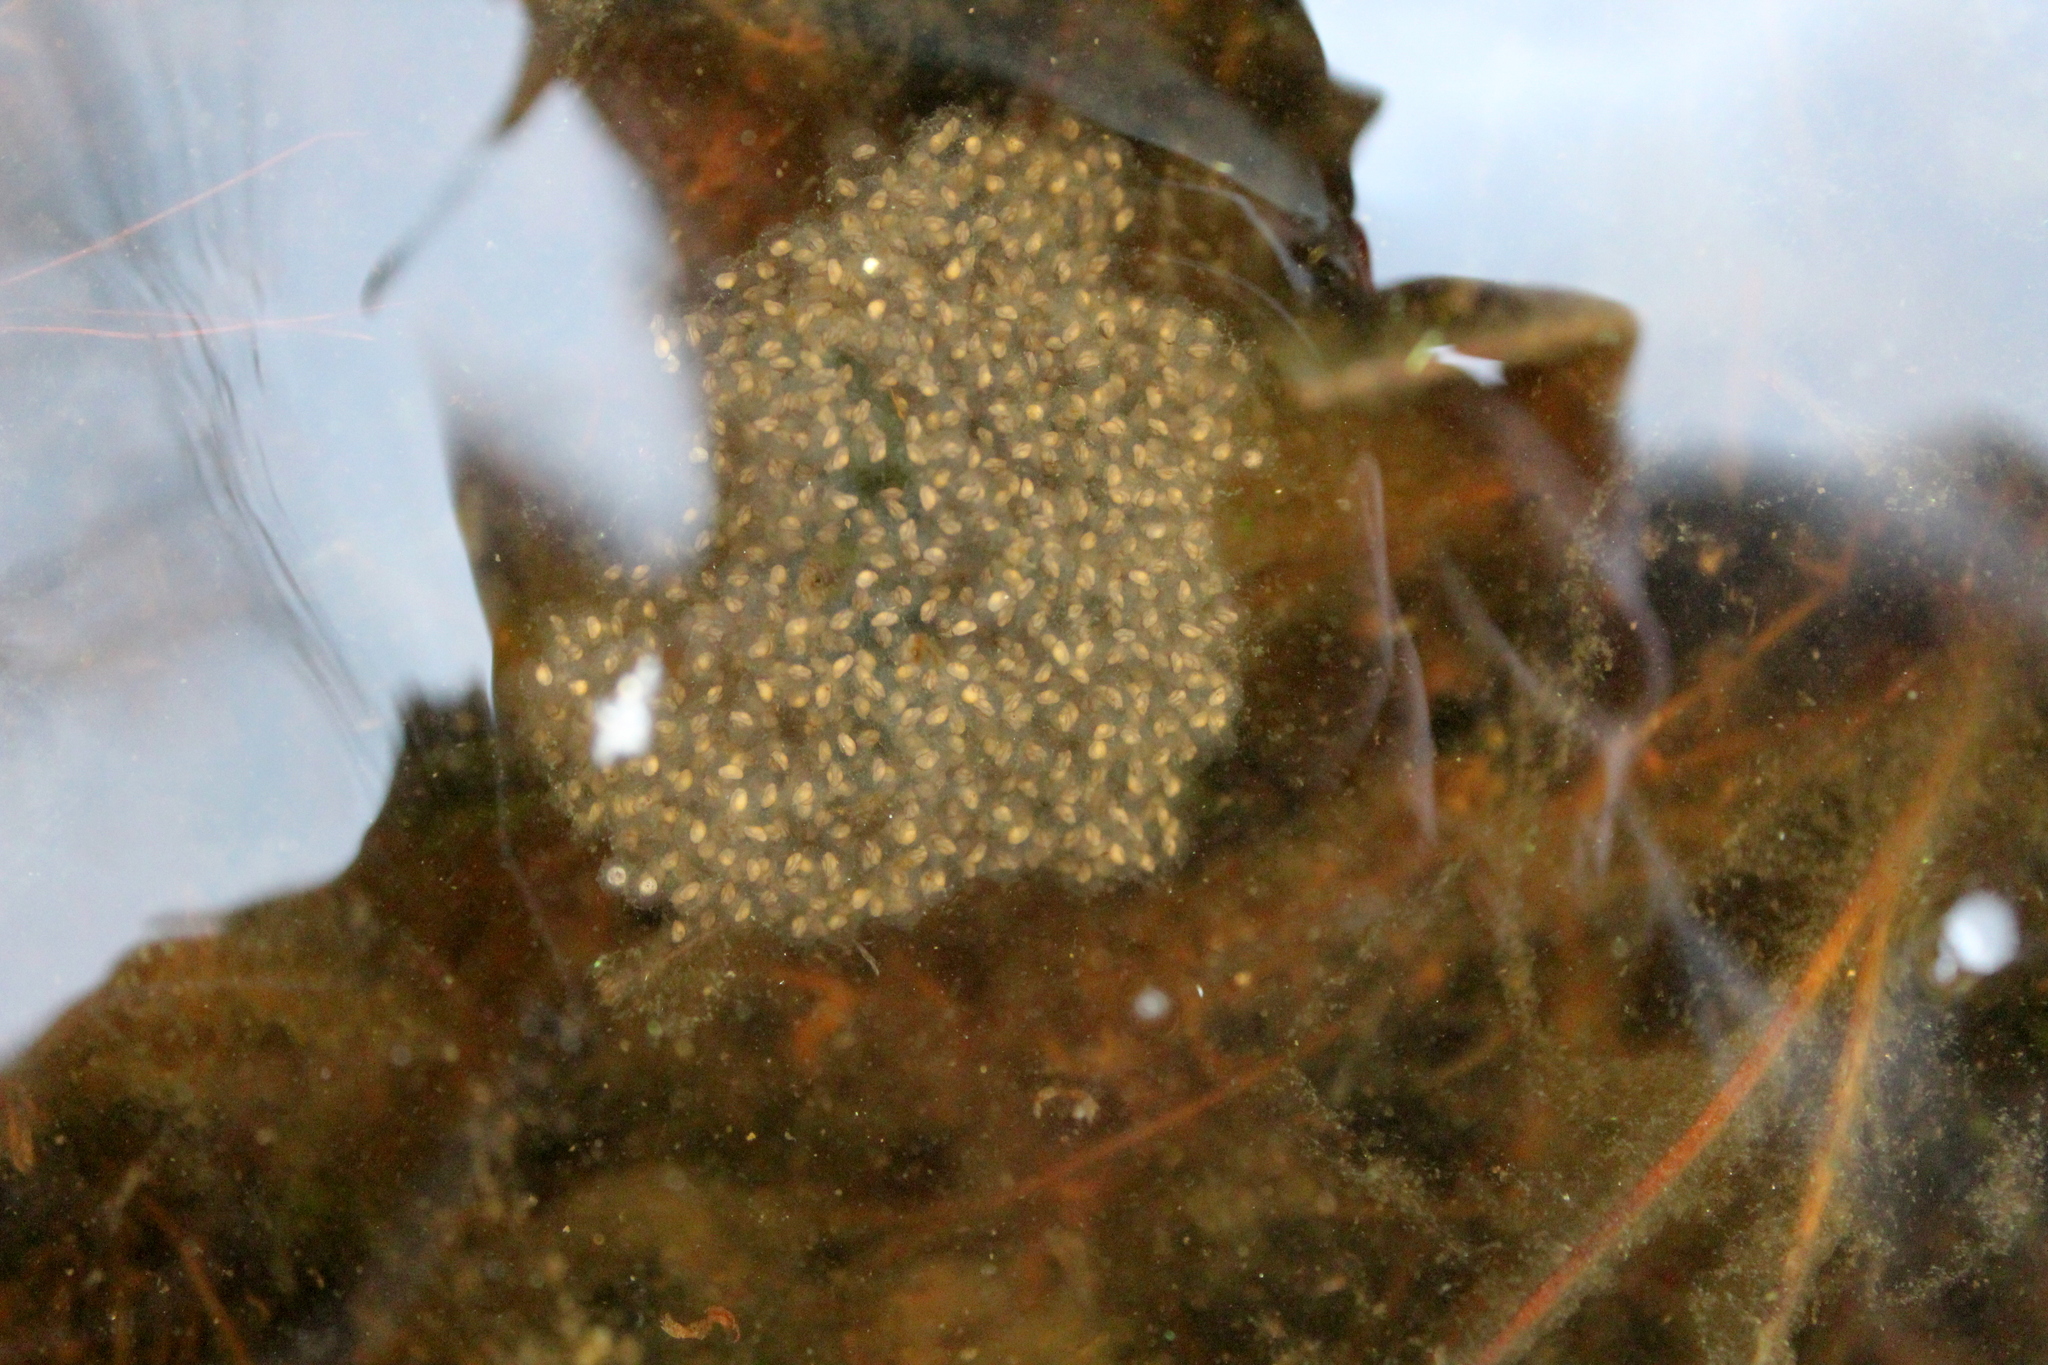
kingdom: Animalia
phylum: Chordata
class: Amphibia
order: Anura
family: Ranidae
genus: Lithobates
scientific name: Lithobates palustris
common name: Pickerel frog
